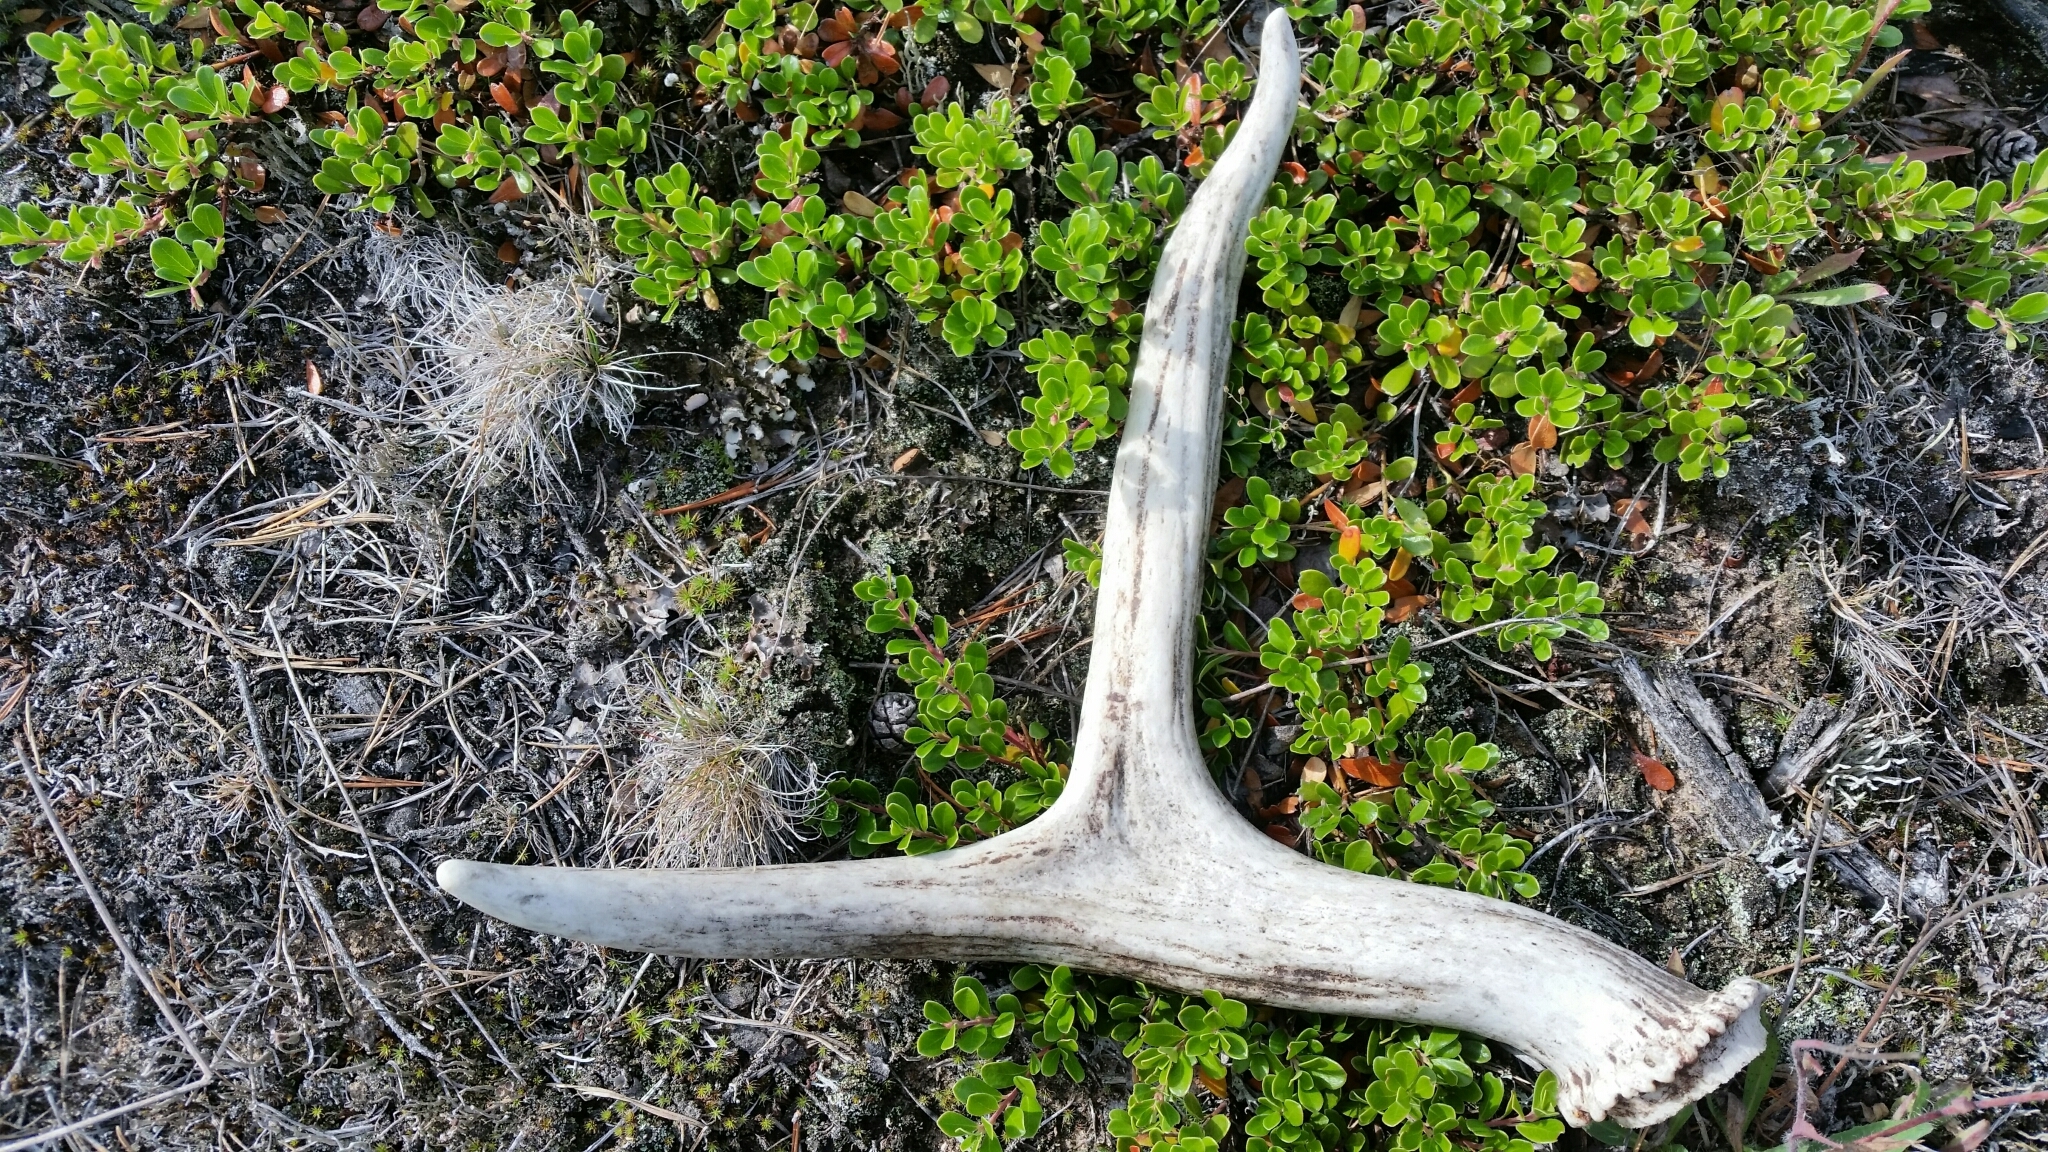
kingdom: Animalia
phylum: Chordata
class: Mammalia
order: Artiodactyla
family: Cervidae
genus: Alces
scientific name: Alces alces
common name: Moose
